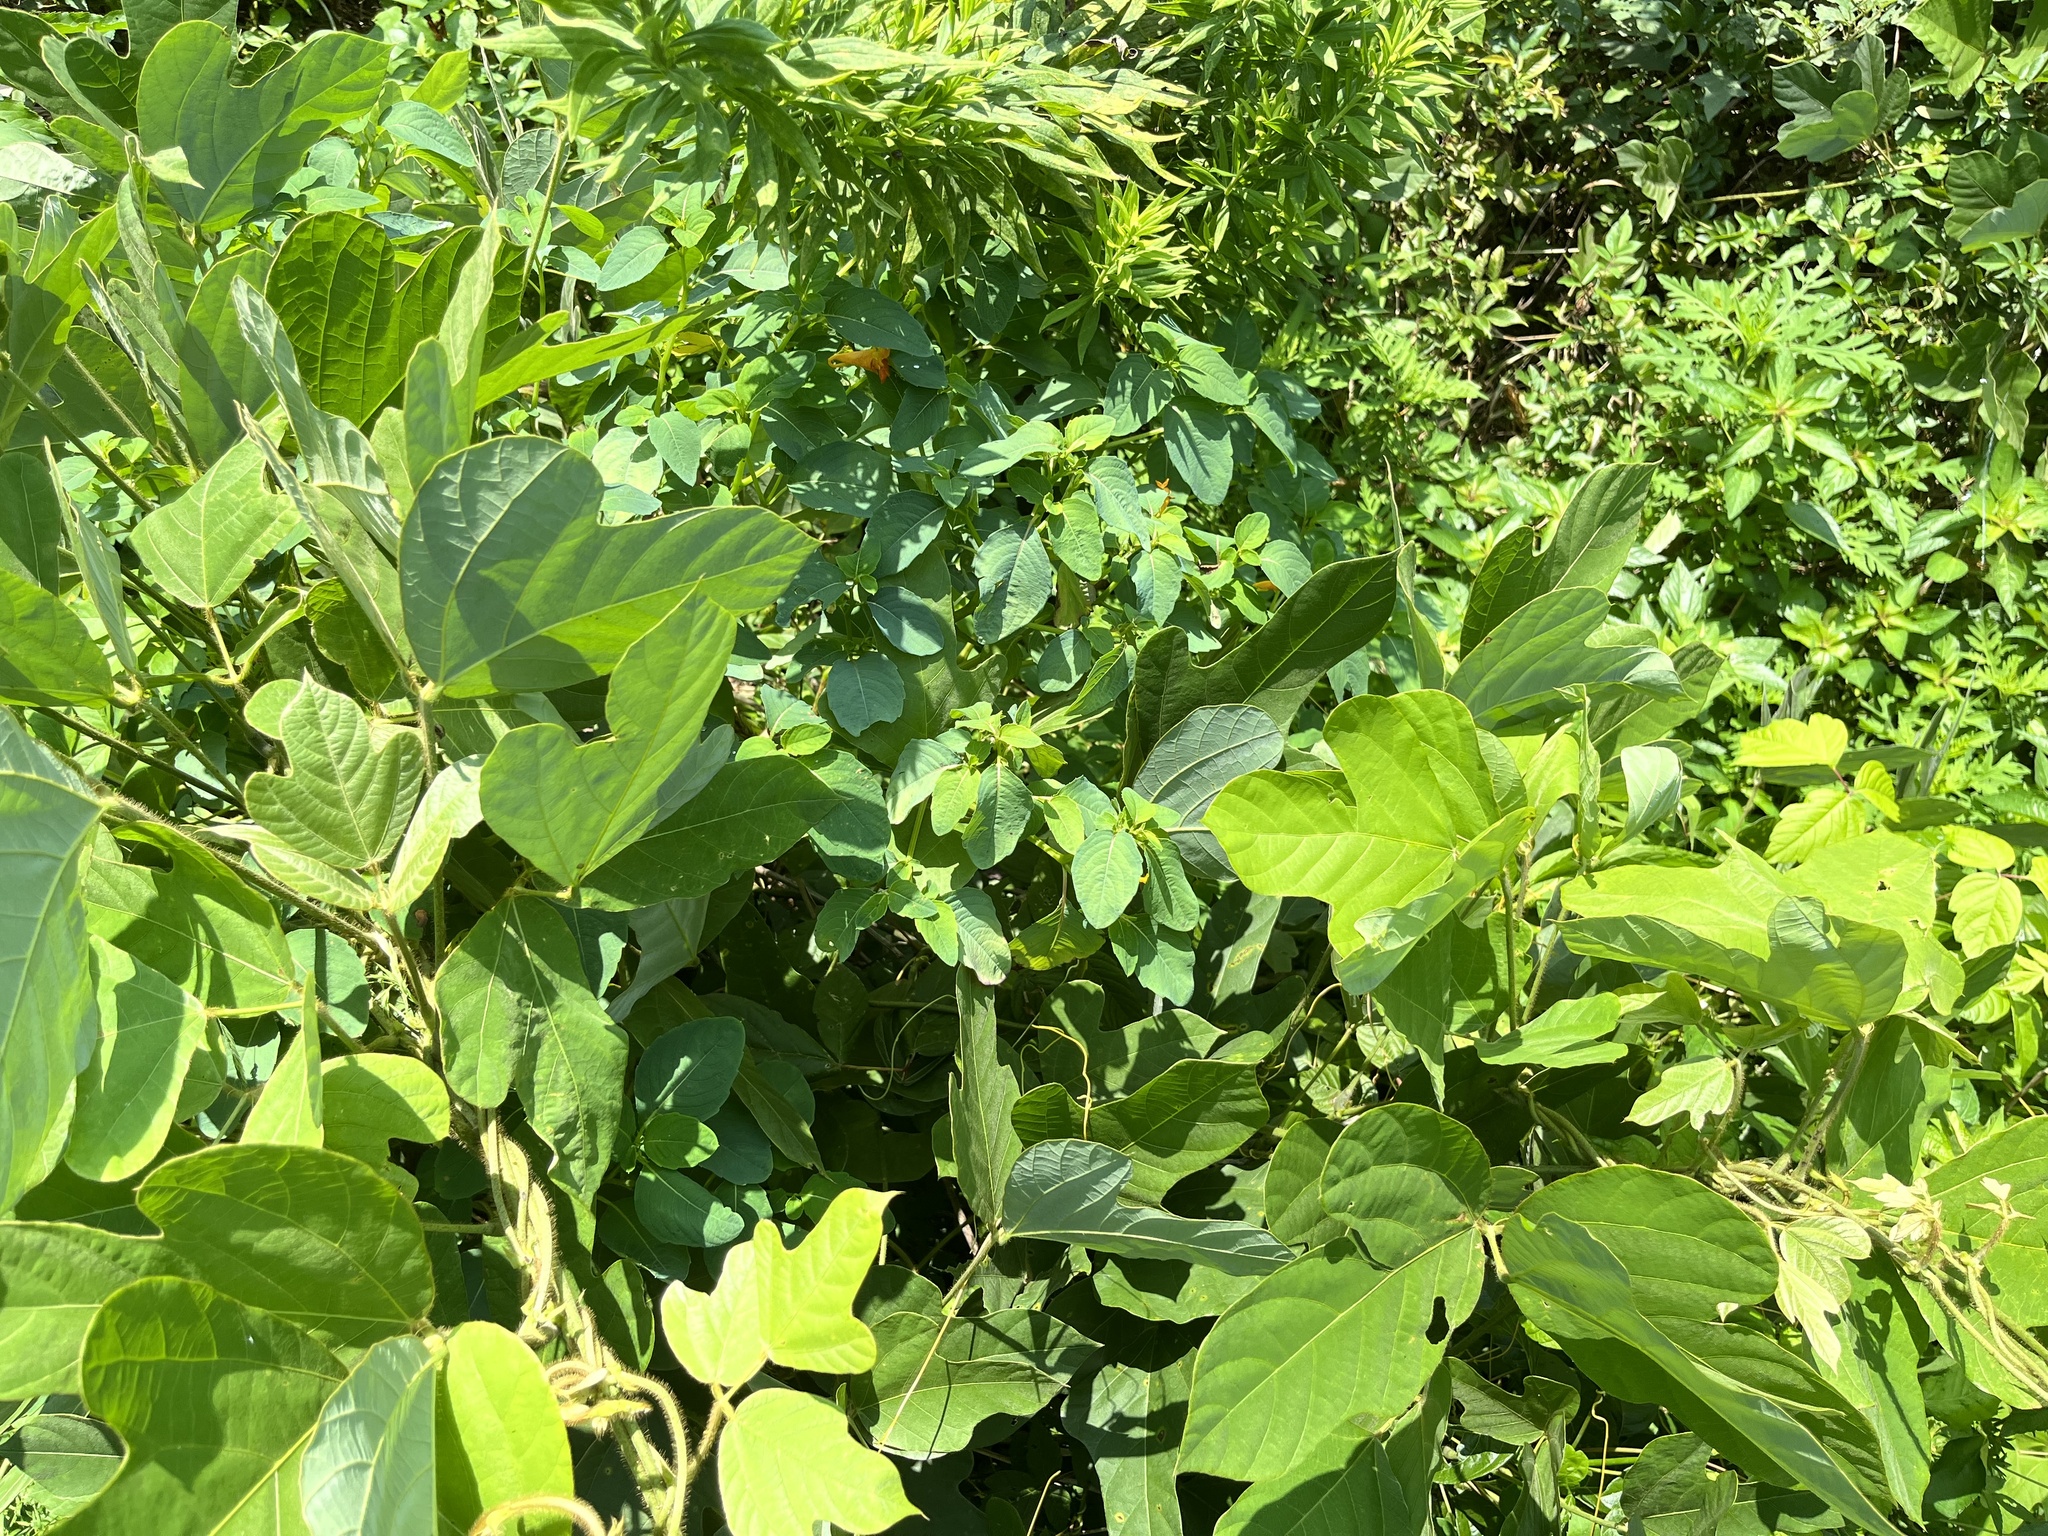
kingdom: Plantae
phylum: Tracheophyta
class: Magnoliopsida
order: Ericales
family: Balsaminaceae
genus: Impatiens
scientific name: Impatiens capensis
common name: Orange balsam
